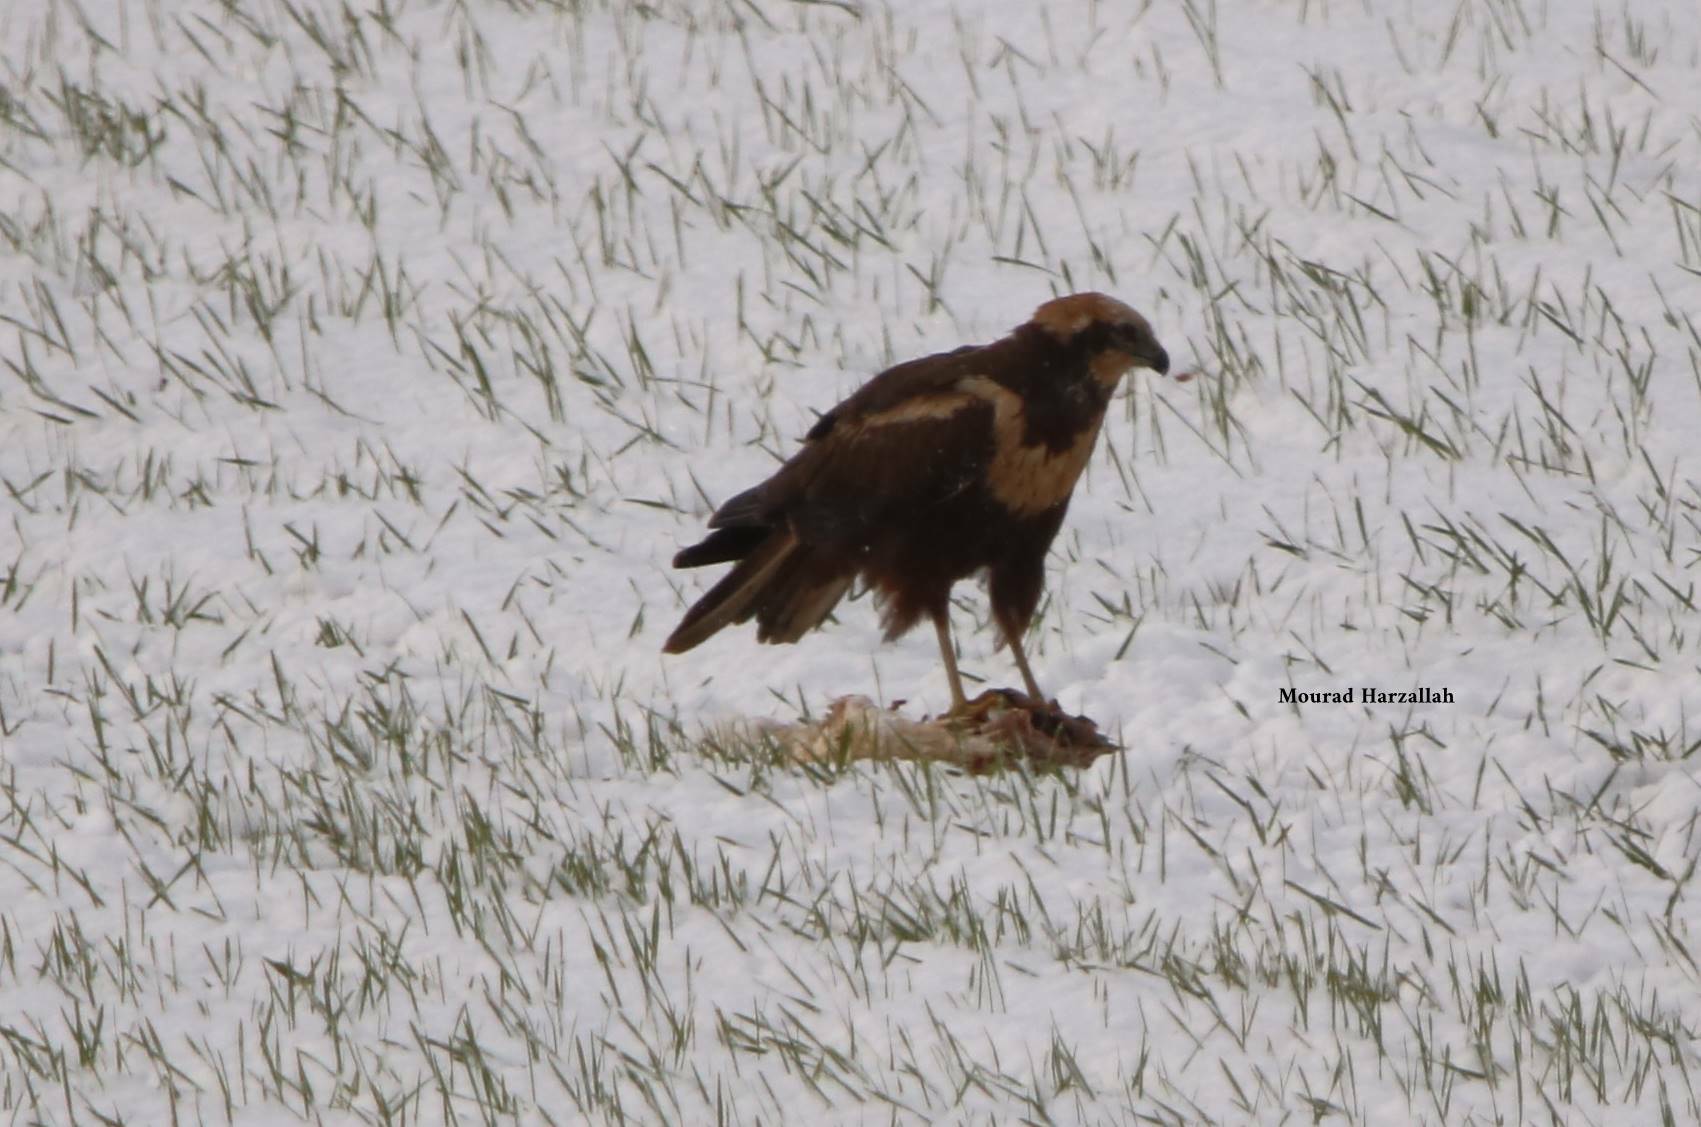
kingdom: Animalia
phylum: Chordata
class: Aves
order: Accipitriformes
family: Accipitridae
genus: Circus
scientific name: Circus aeruginosus
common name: Western marsh harrier
